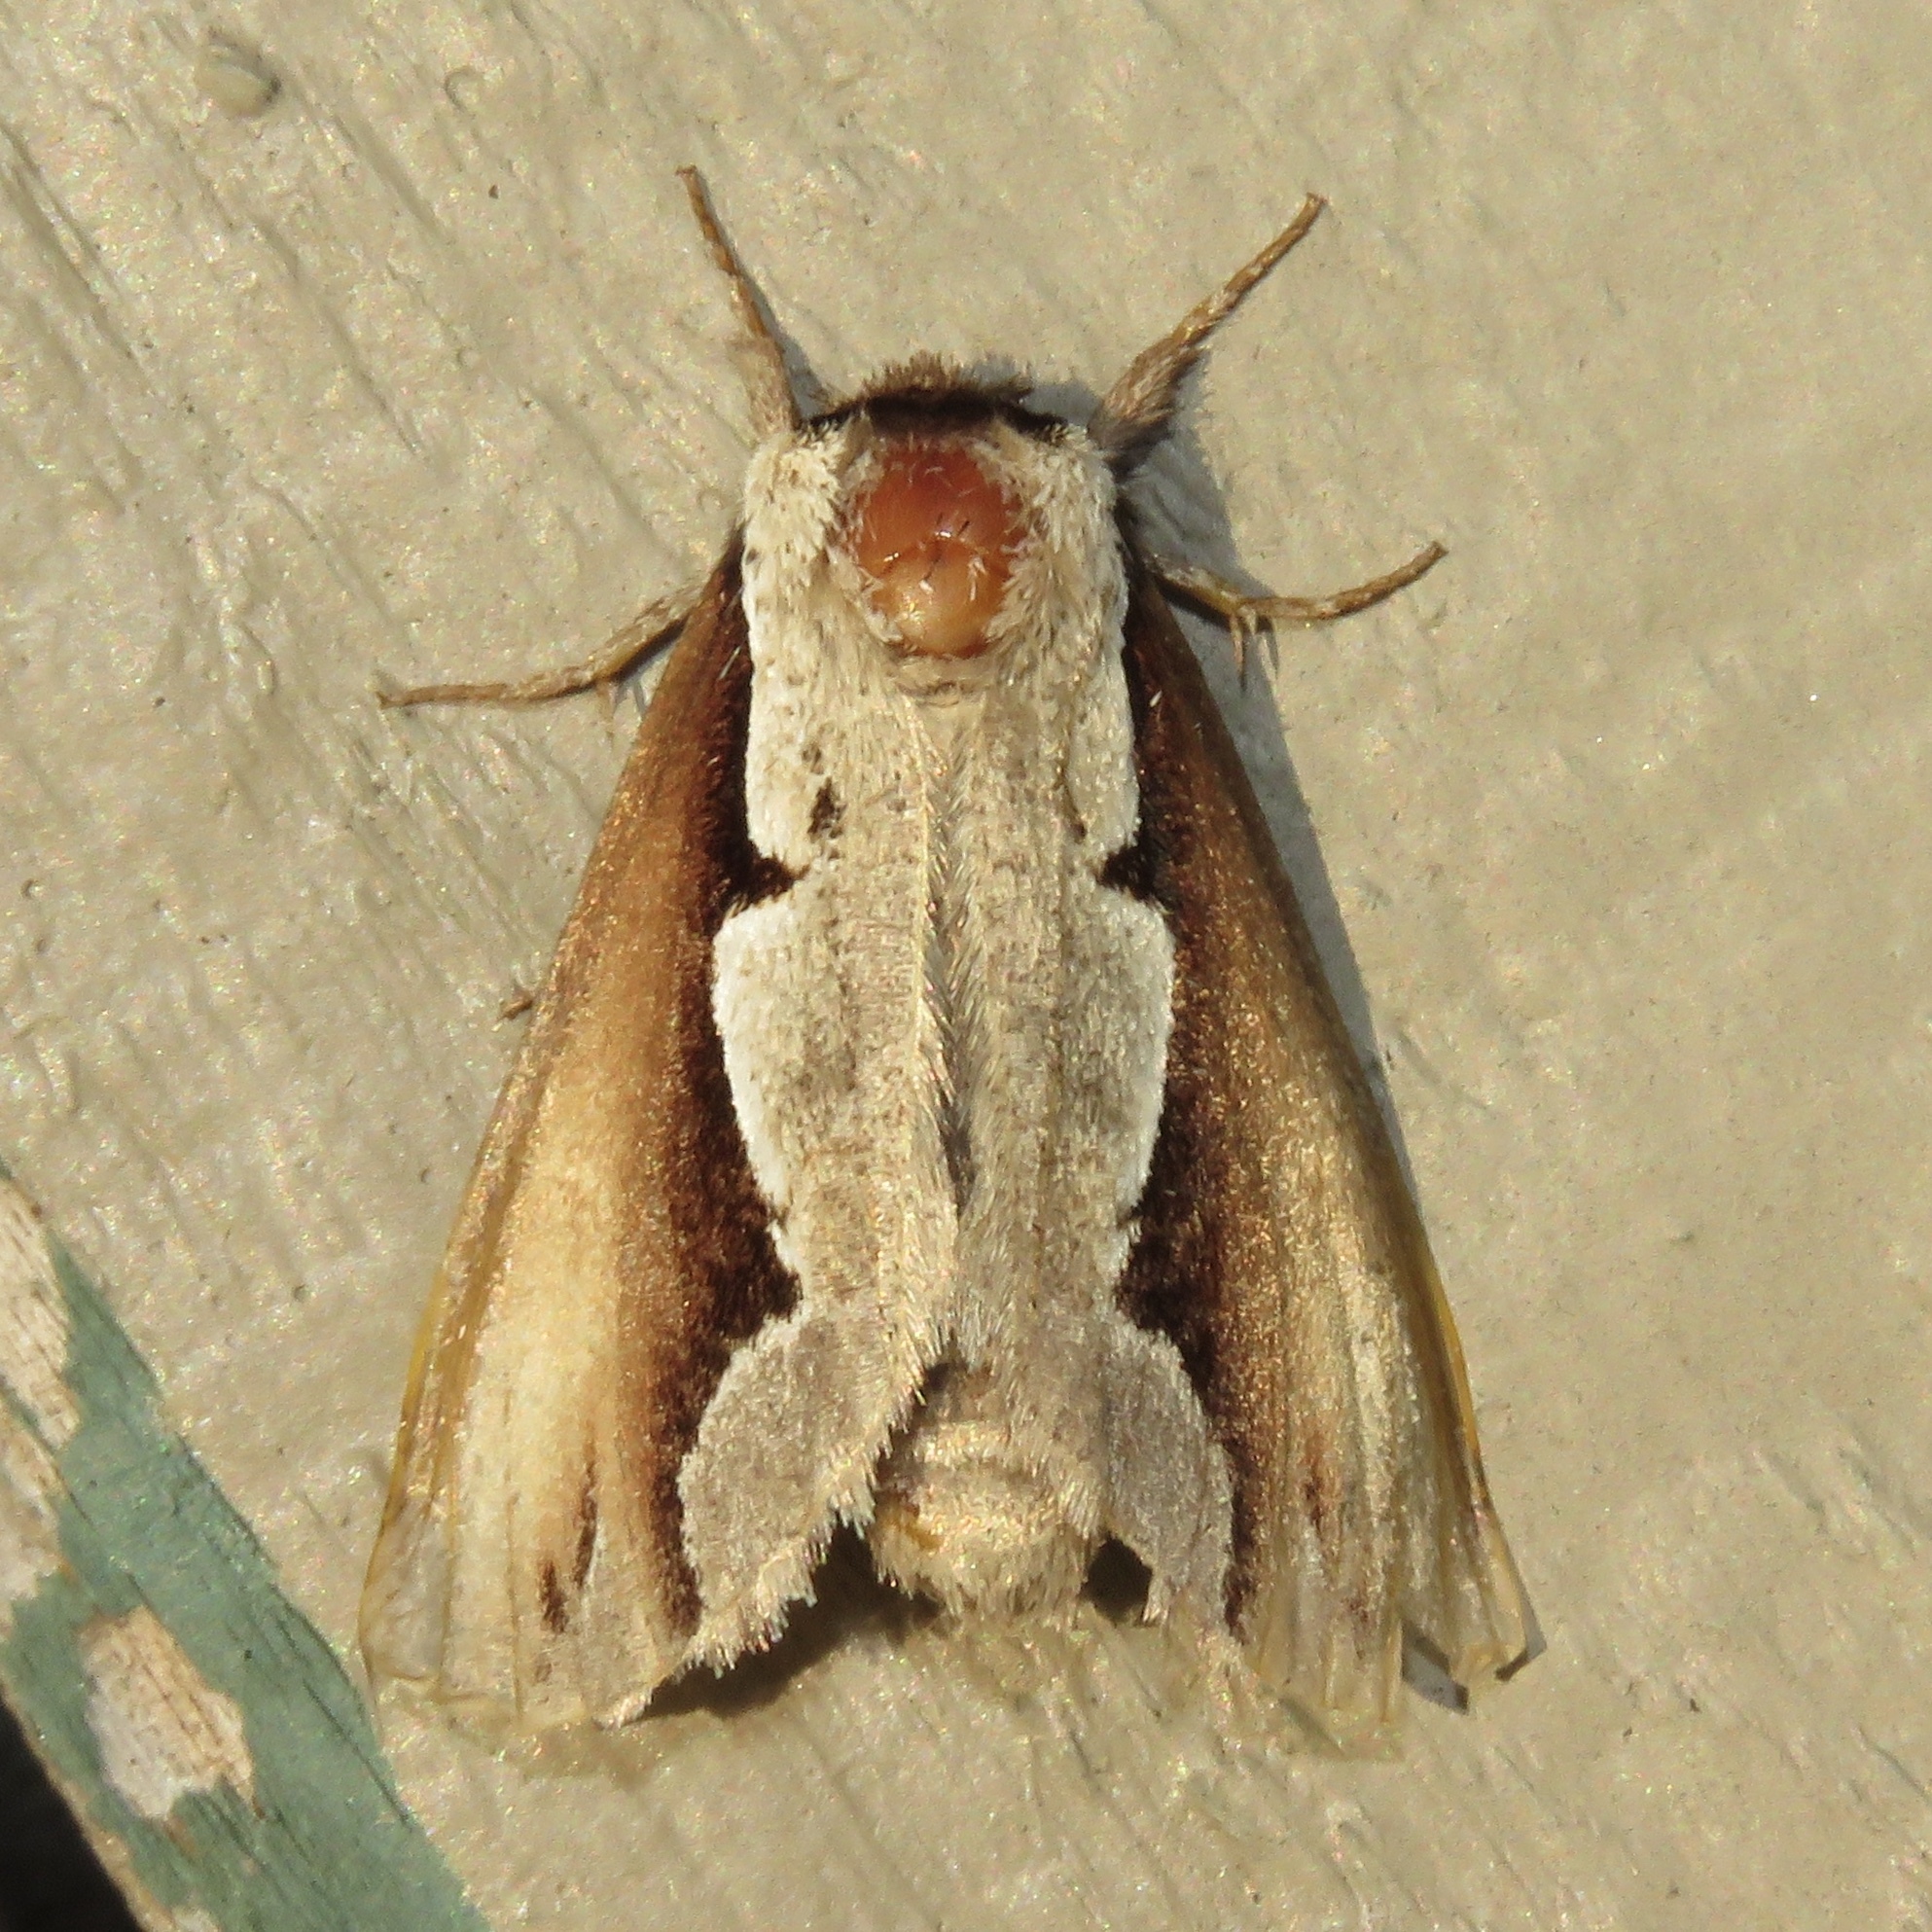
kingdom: Animalia
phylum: Arthropoda
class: Insecta
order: Lepidoptera
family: Notodontidae
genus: Nerice
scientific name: Nerice bidentata
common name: Double-toothed prominent
